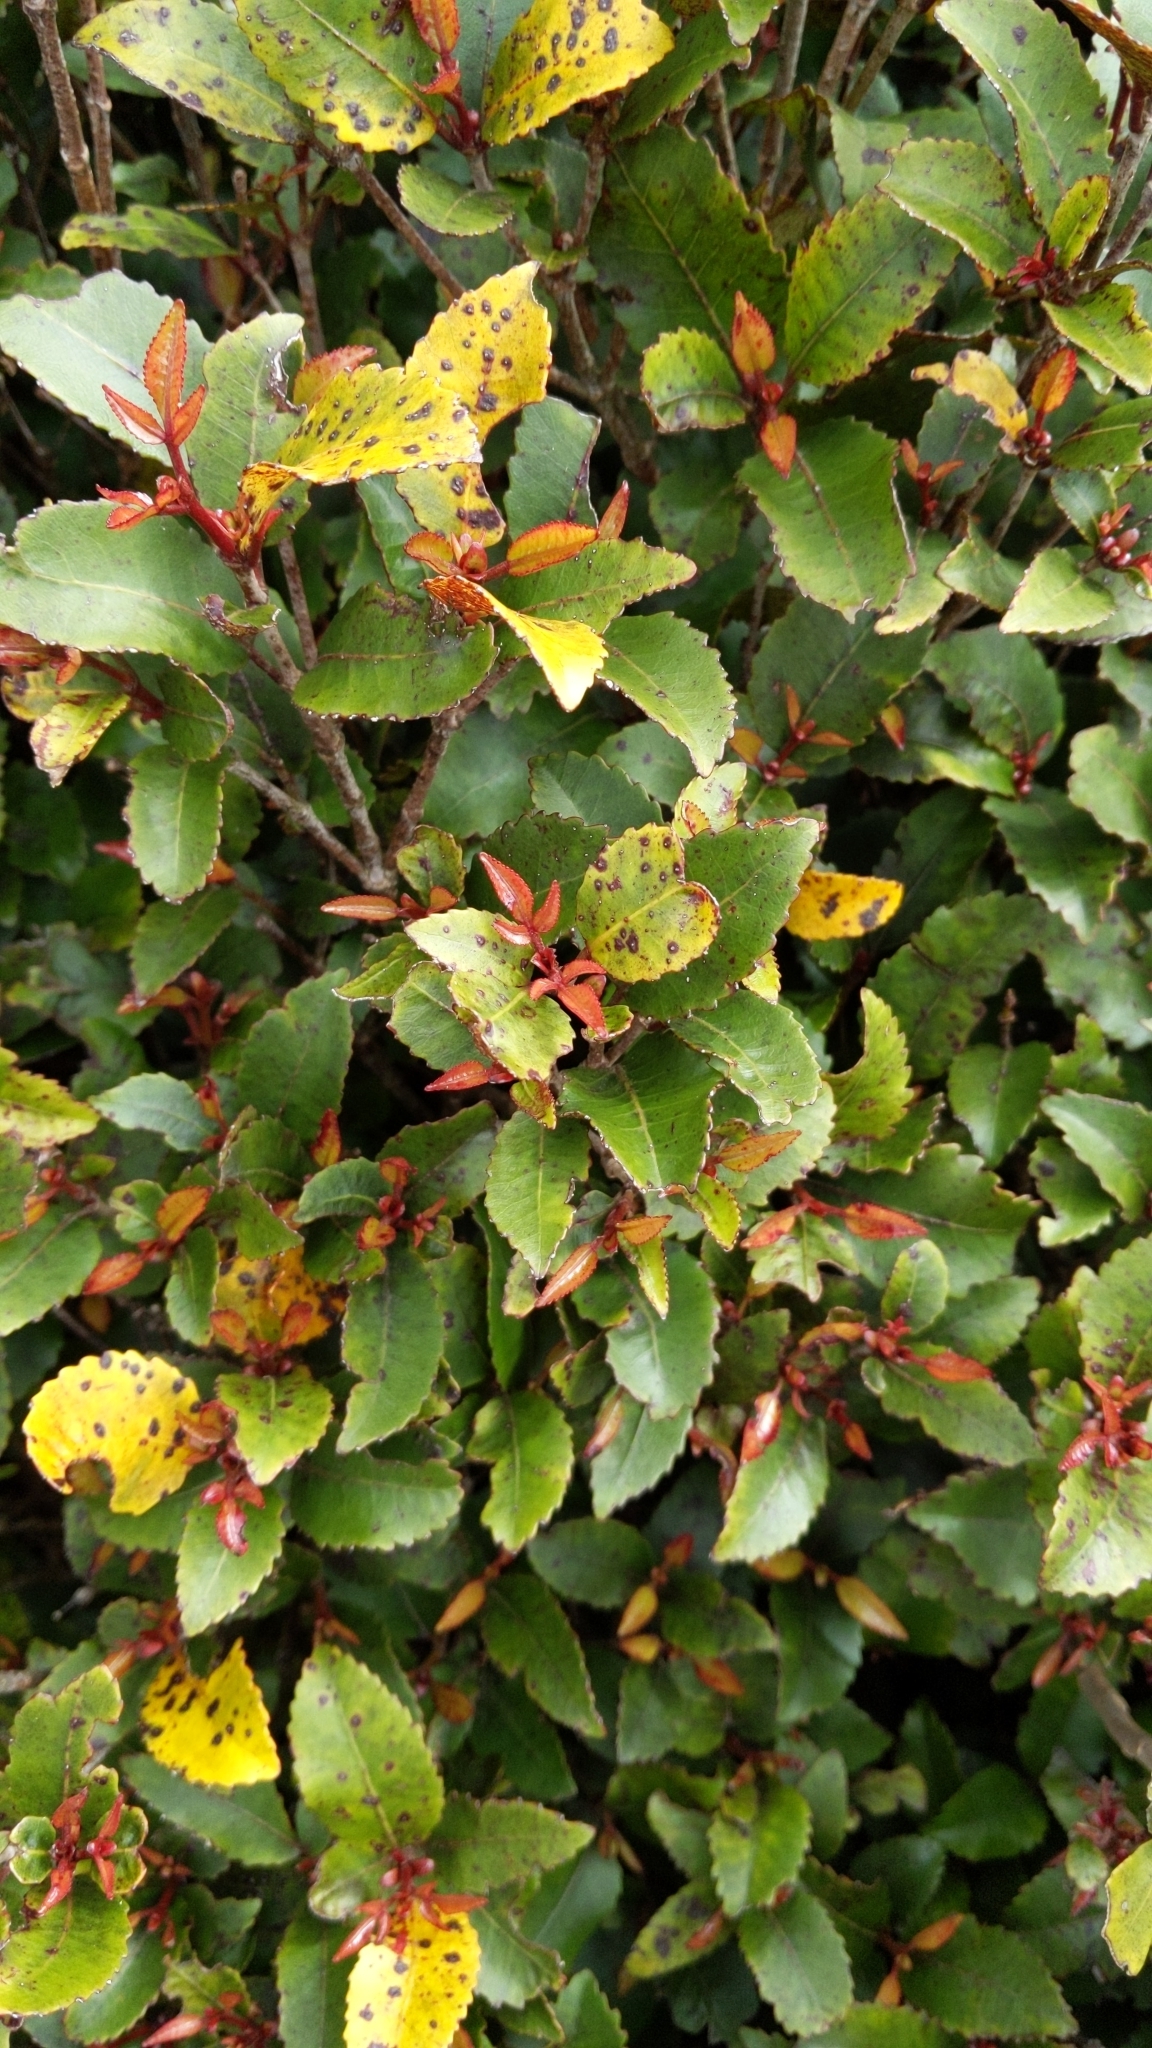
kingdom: Plantae
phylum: Tracheophyta
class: Magnoliopsida
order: Oxalidales
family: Cunoniaceae
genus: Pterophylla
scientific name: Pterophylla racemosa
